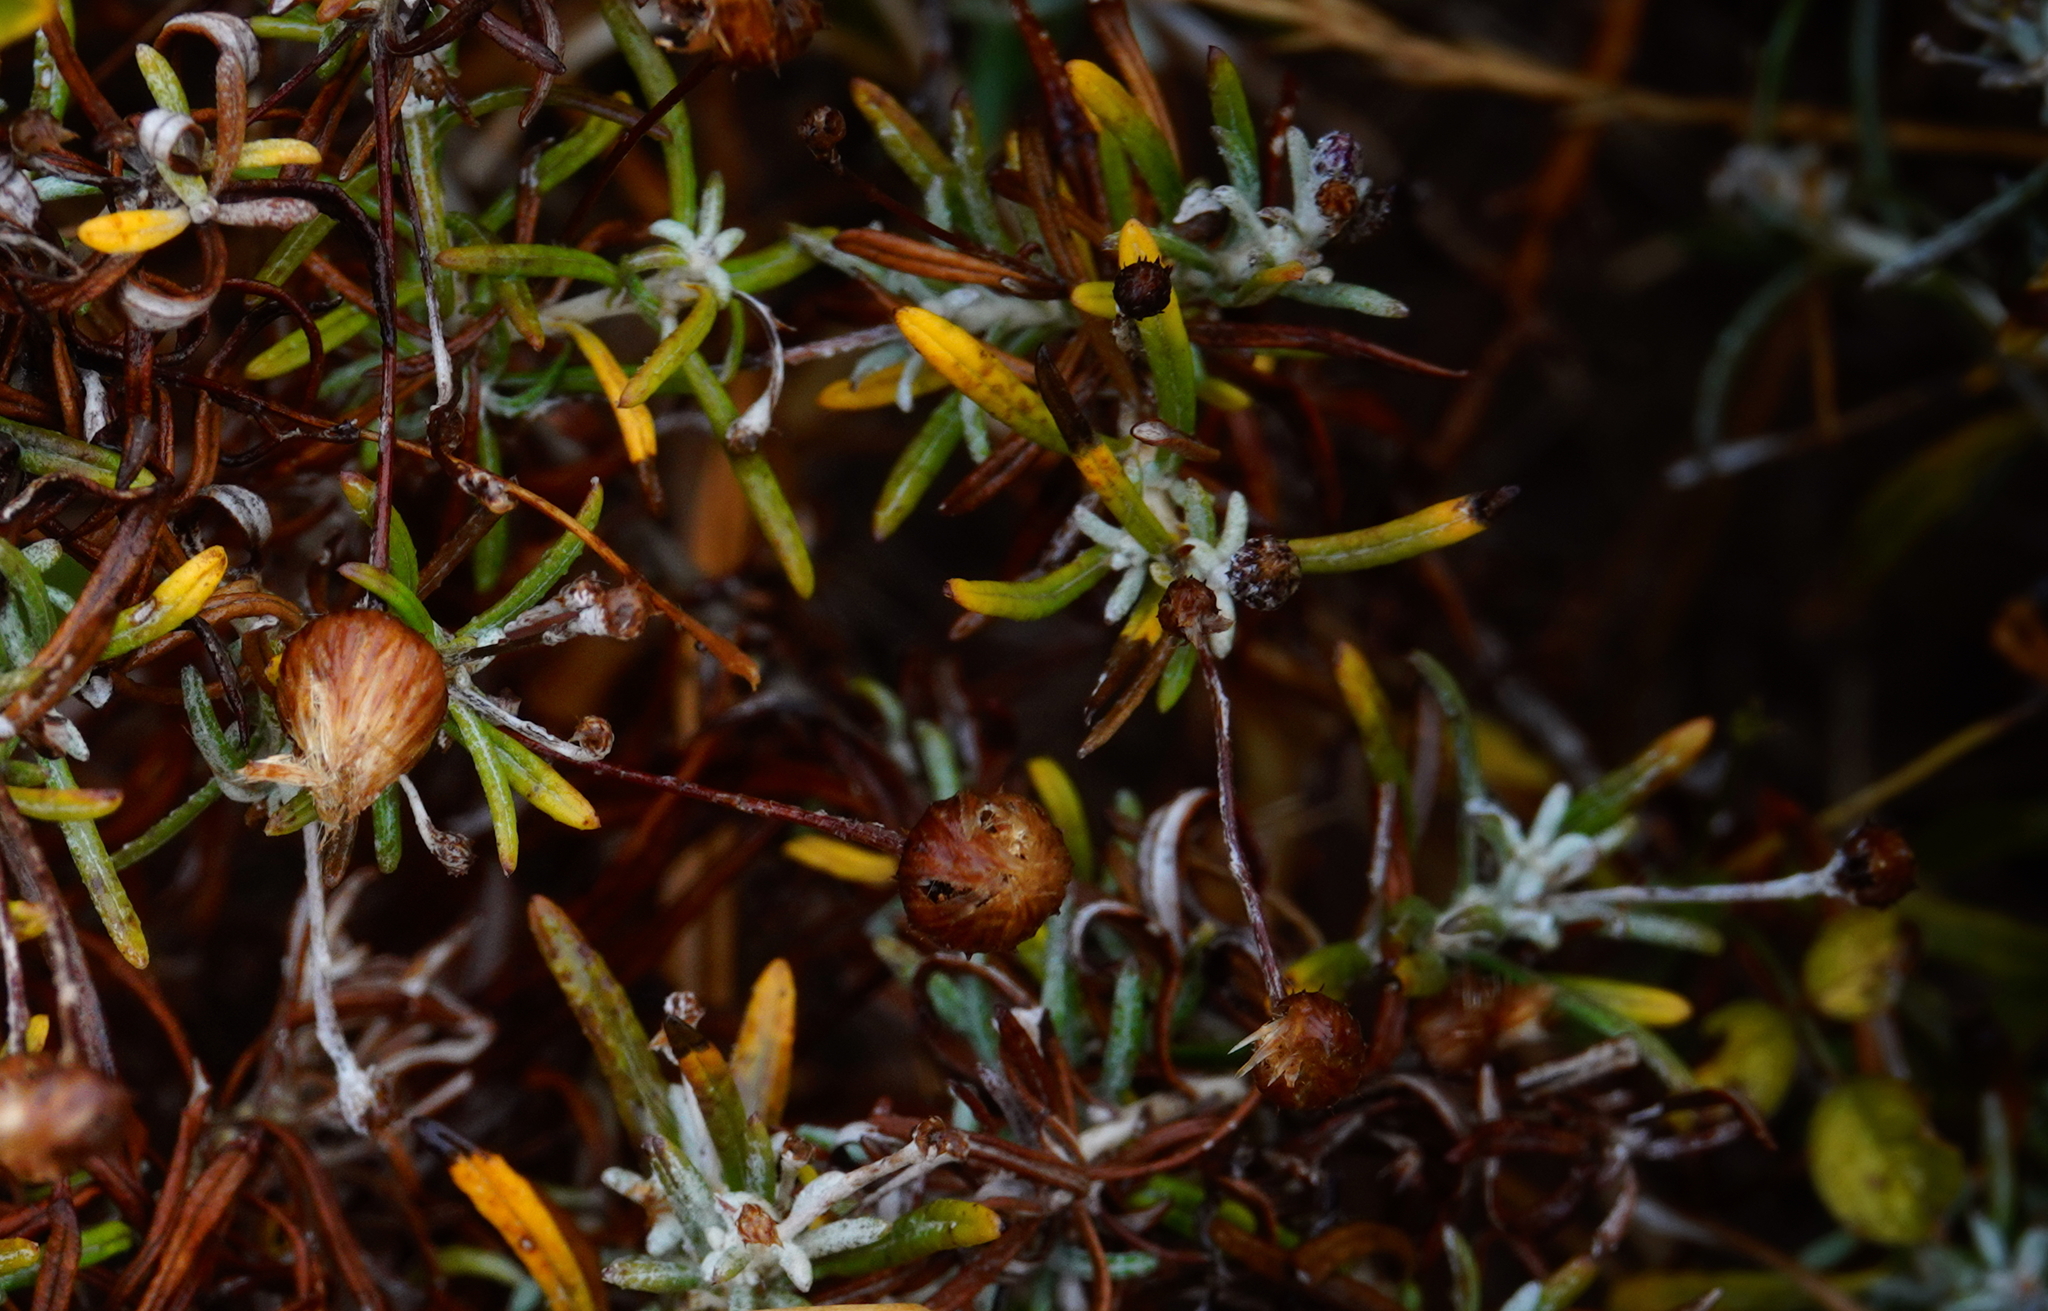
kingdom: Plantae
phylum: Tracheophyta
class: Magnoliopsida
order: Asterales
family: Asteraceae
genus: Phagnalon
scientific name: Phagnalon saxatile
